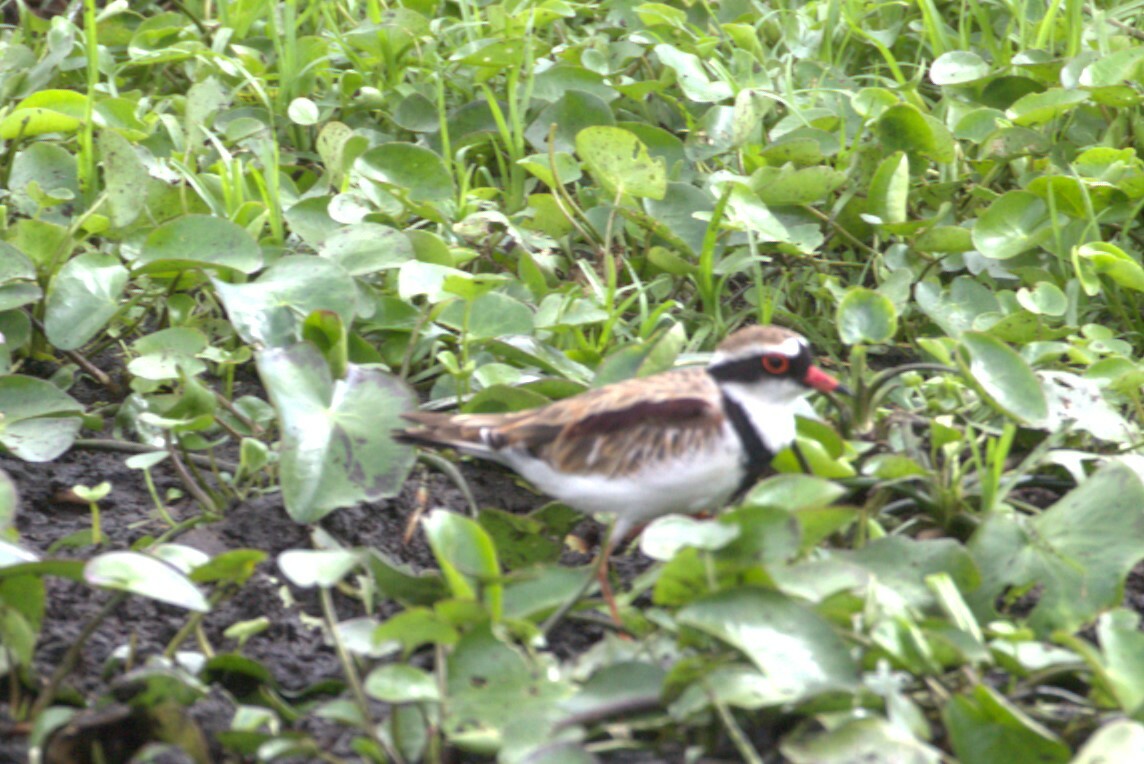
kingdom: Animalia
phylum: Chordata
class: Aves
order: Charadriiformes
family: Charadriidae
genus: Elseyornis
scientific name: Elseyornis melanops
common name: Black-fronted dotterel
